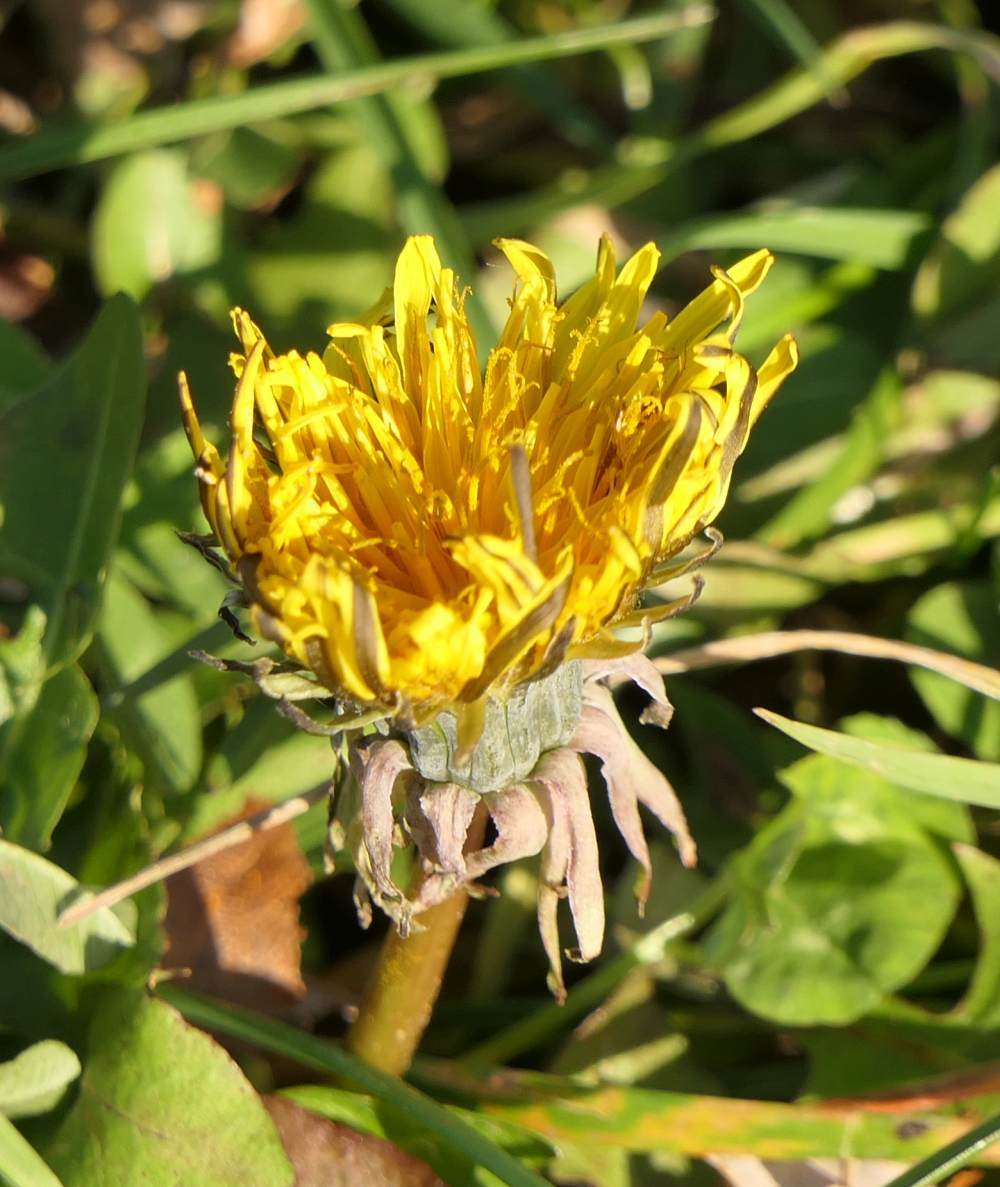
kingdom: Plantae
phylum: Tracheophyta
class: Magnoliopsida
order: Asterales
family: Asteraceae
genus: Taraxacum
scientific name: Taraxacum officinale
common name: Common dandelion
